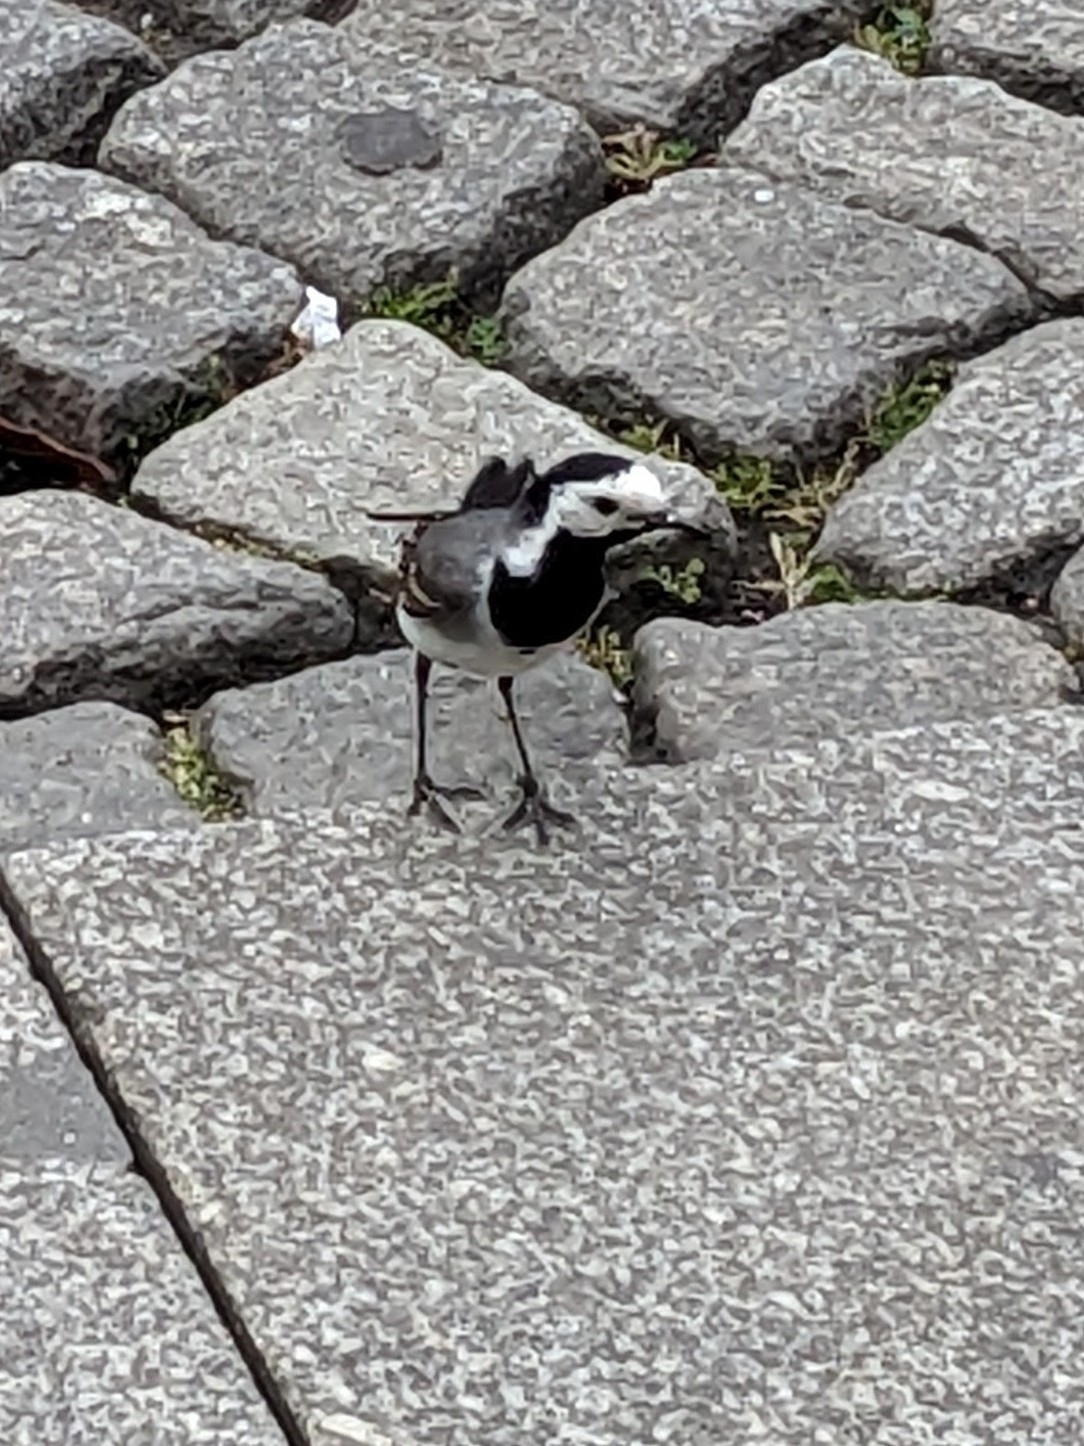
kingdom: Animalia
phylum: Chordata
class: Aves
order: Passeriformes
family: Motacillidae
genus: Motacilla
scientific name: Motacilla alba
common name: White wagtail
